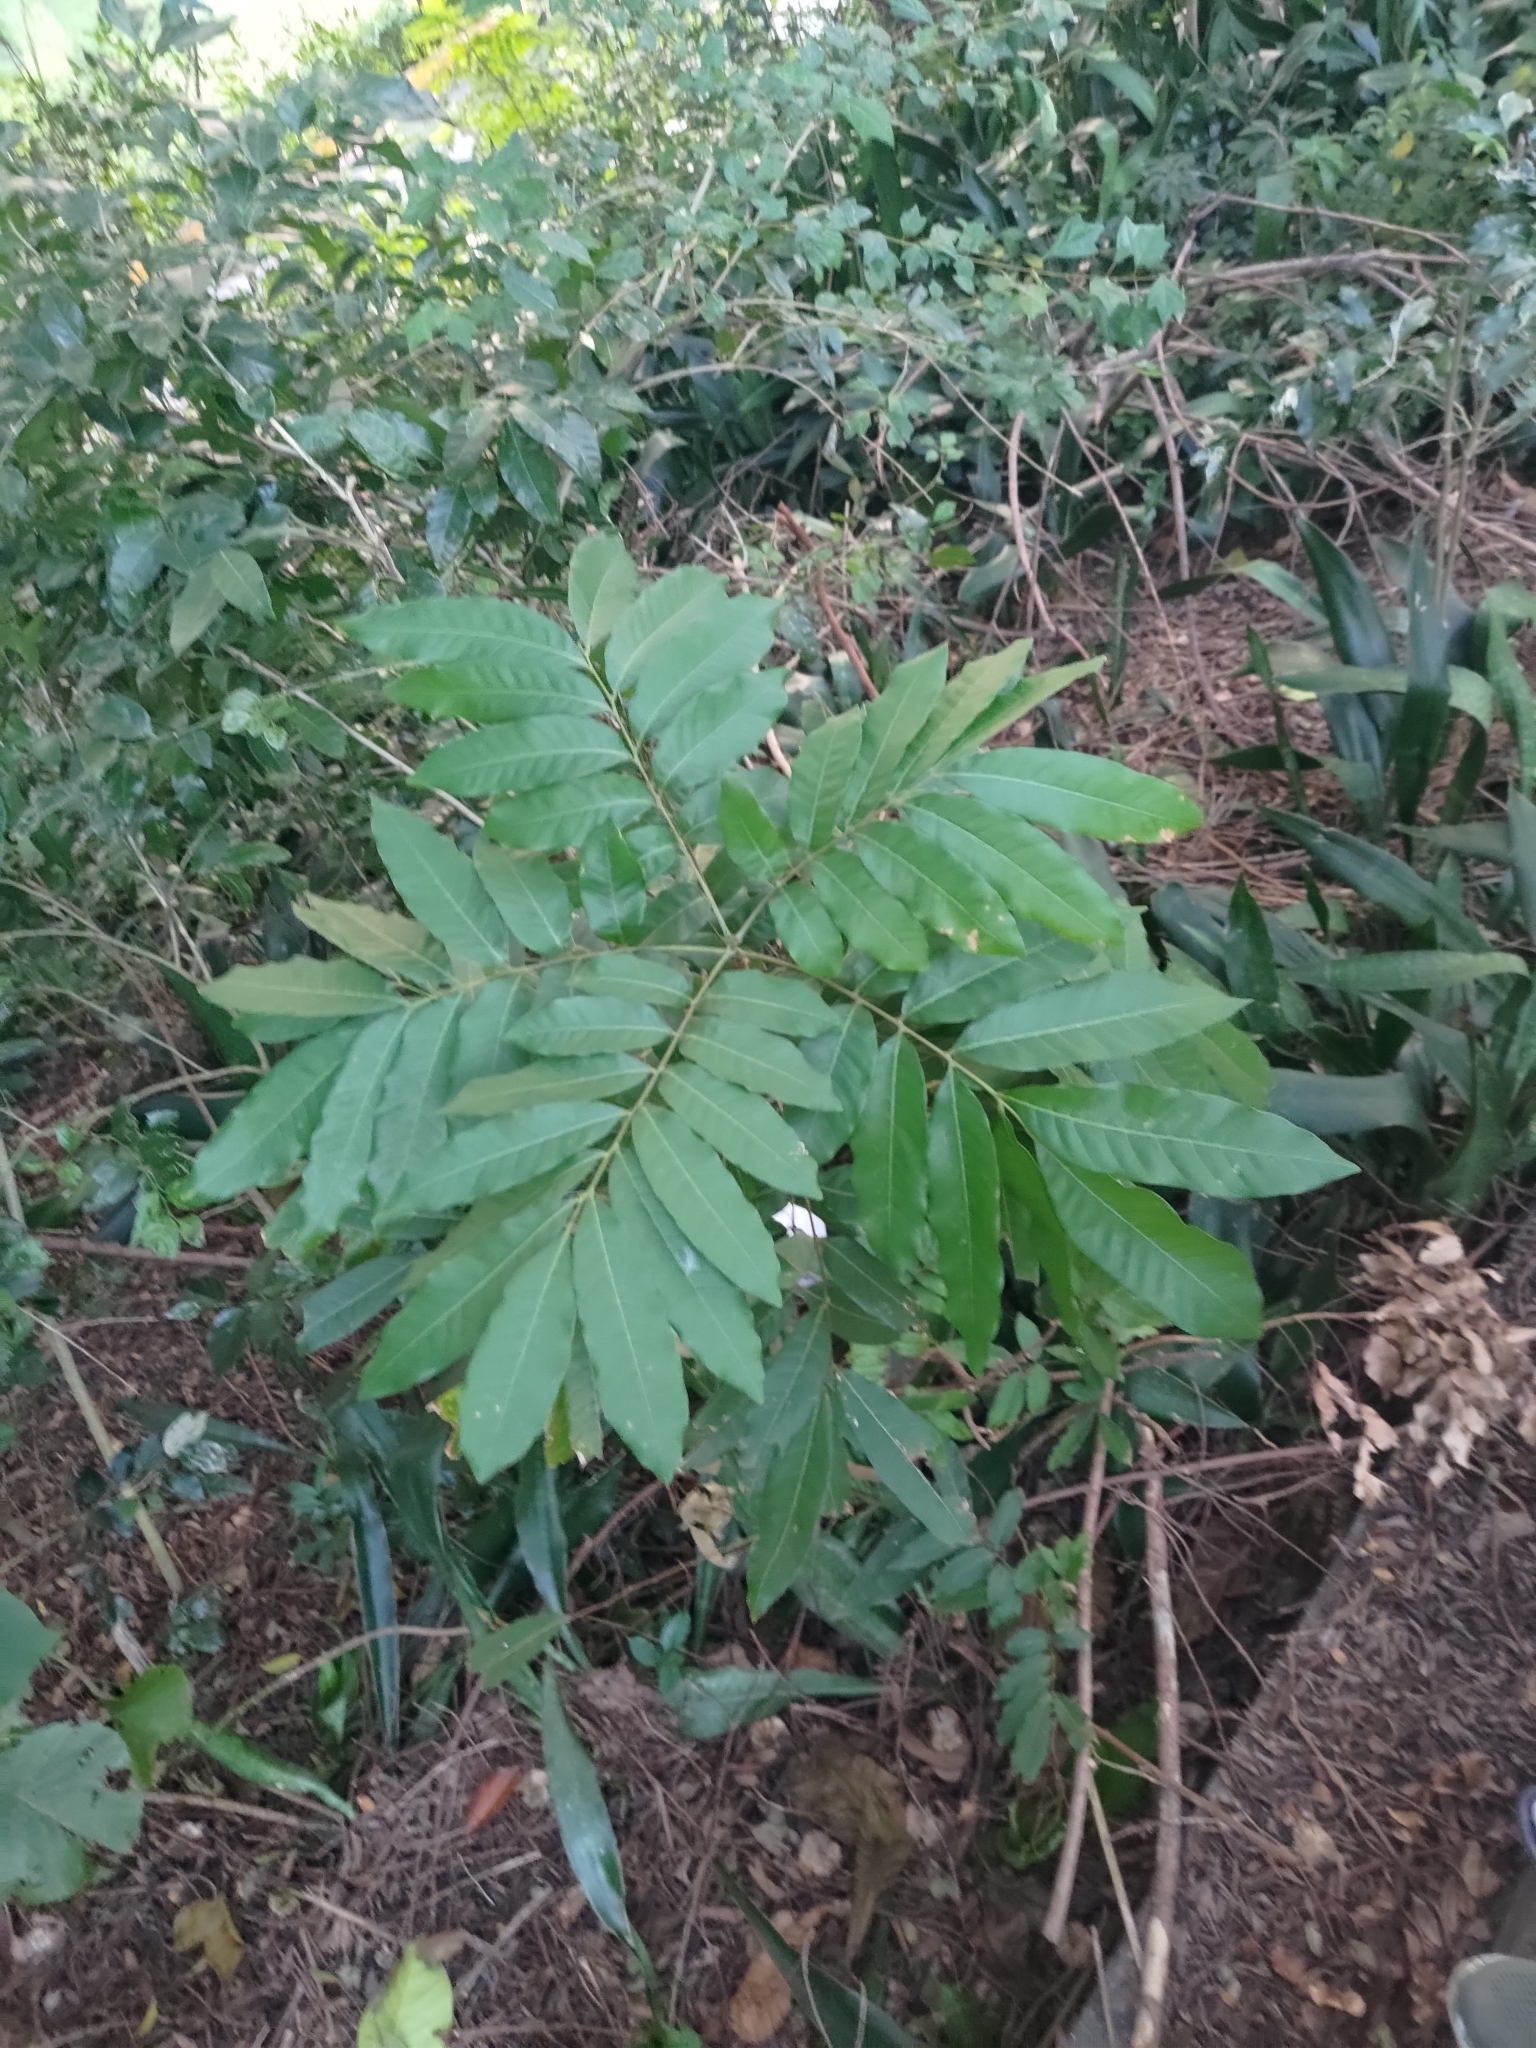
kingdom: Plantae
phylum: Tracheophyta
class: Magnoliopsida
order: Sapindales
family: Sapindaceae
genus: Dimocarpus
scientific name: Dimocarpus longan
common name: Longan
